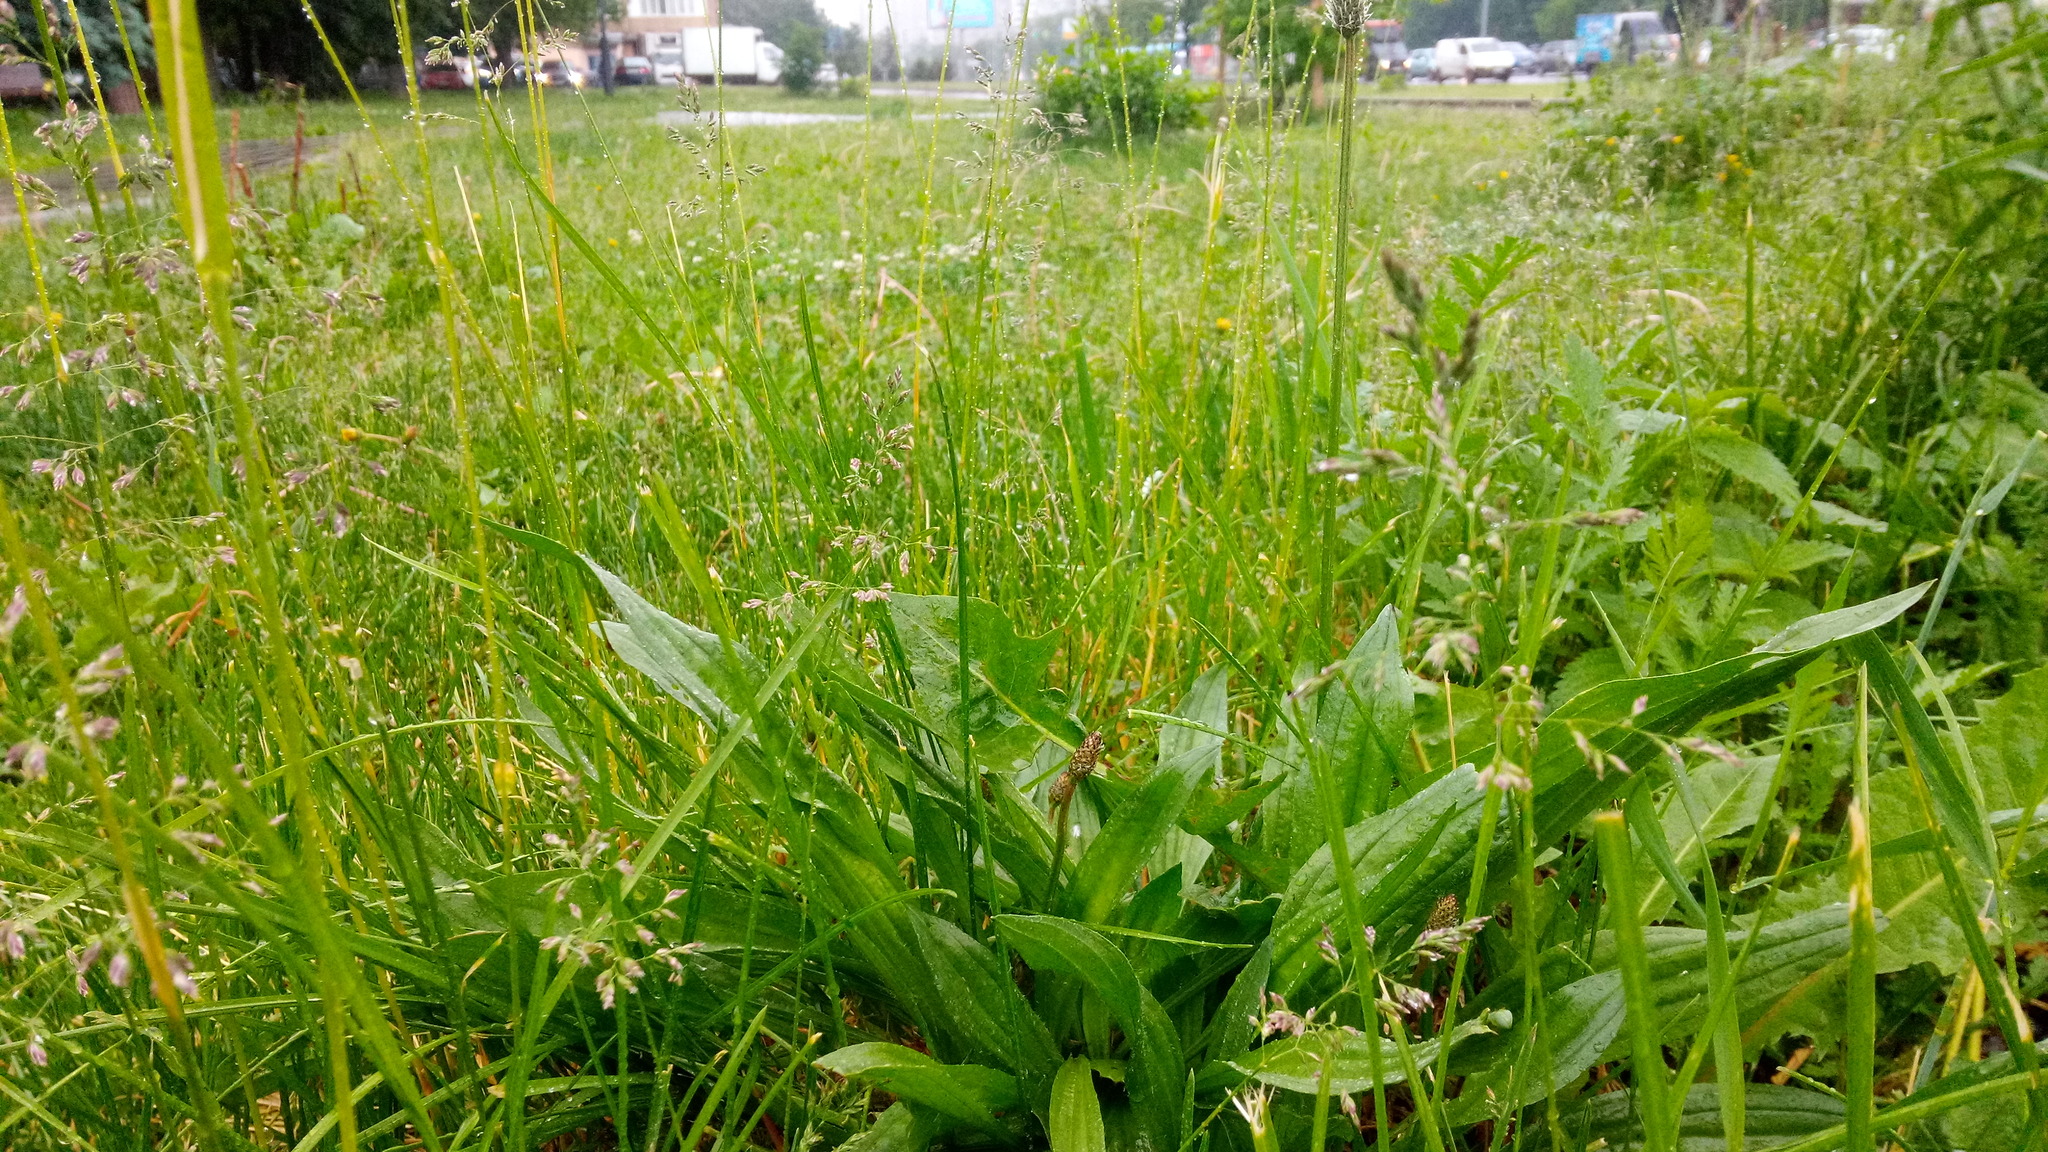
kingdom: Plantae
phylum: Tracheophyta
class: Magnoliopsida
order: Lamiales
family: Plantaginaceae
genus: Plantago
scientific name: Plantago lanceolata
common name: Ribwort plantain
